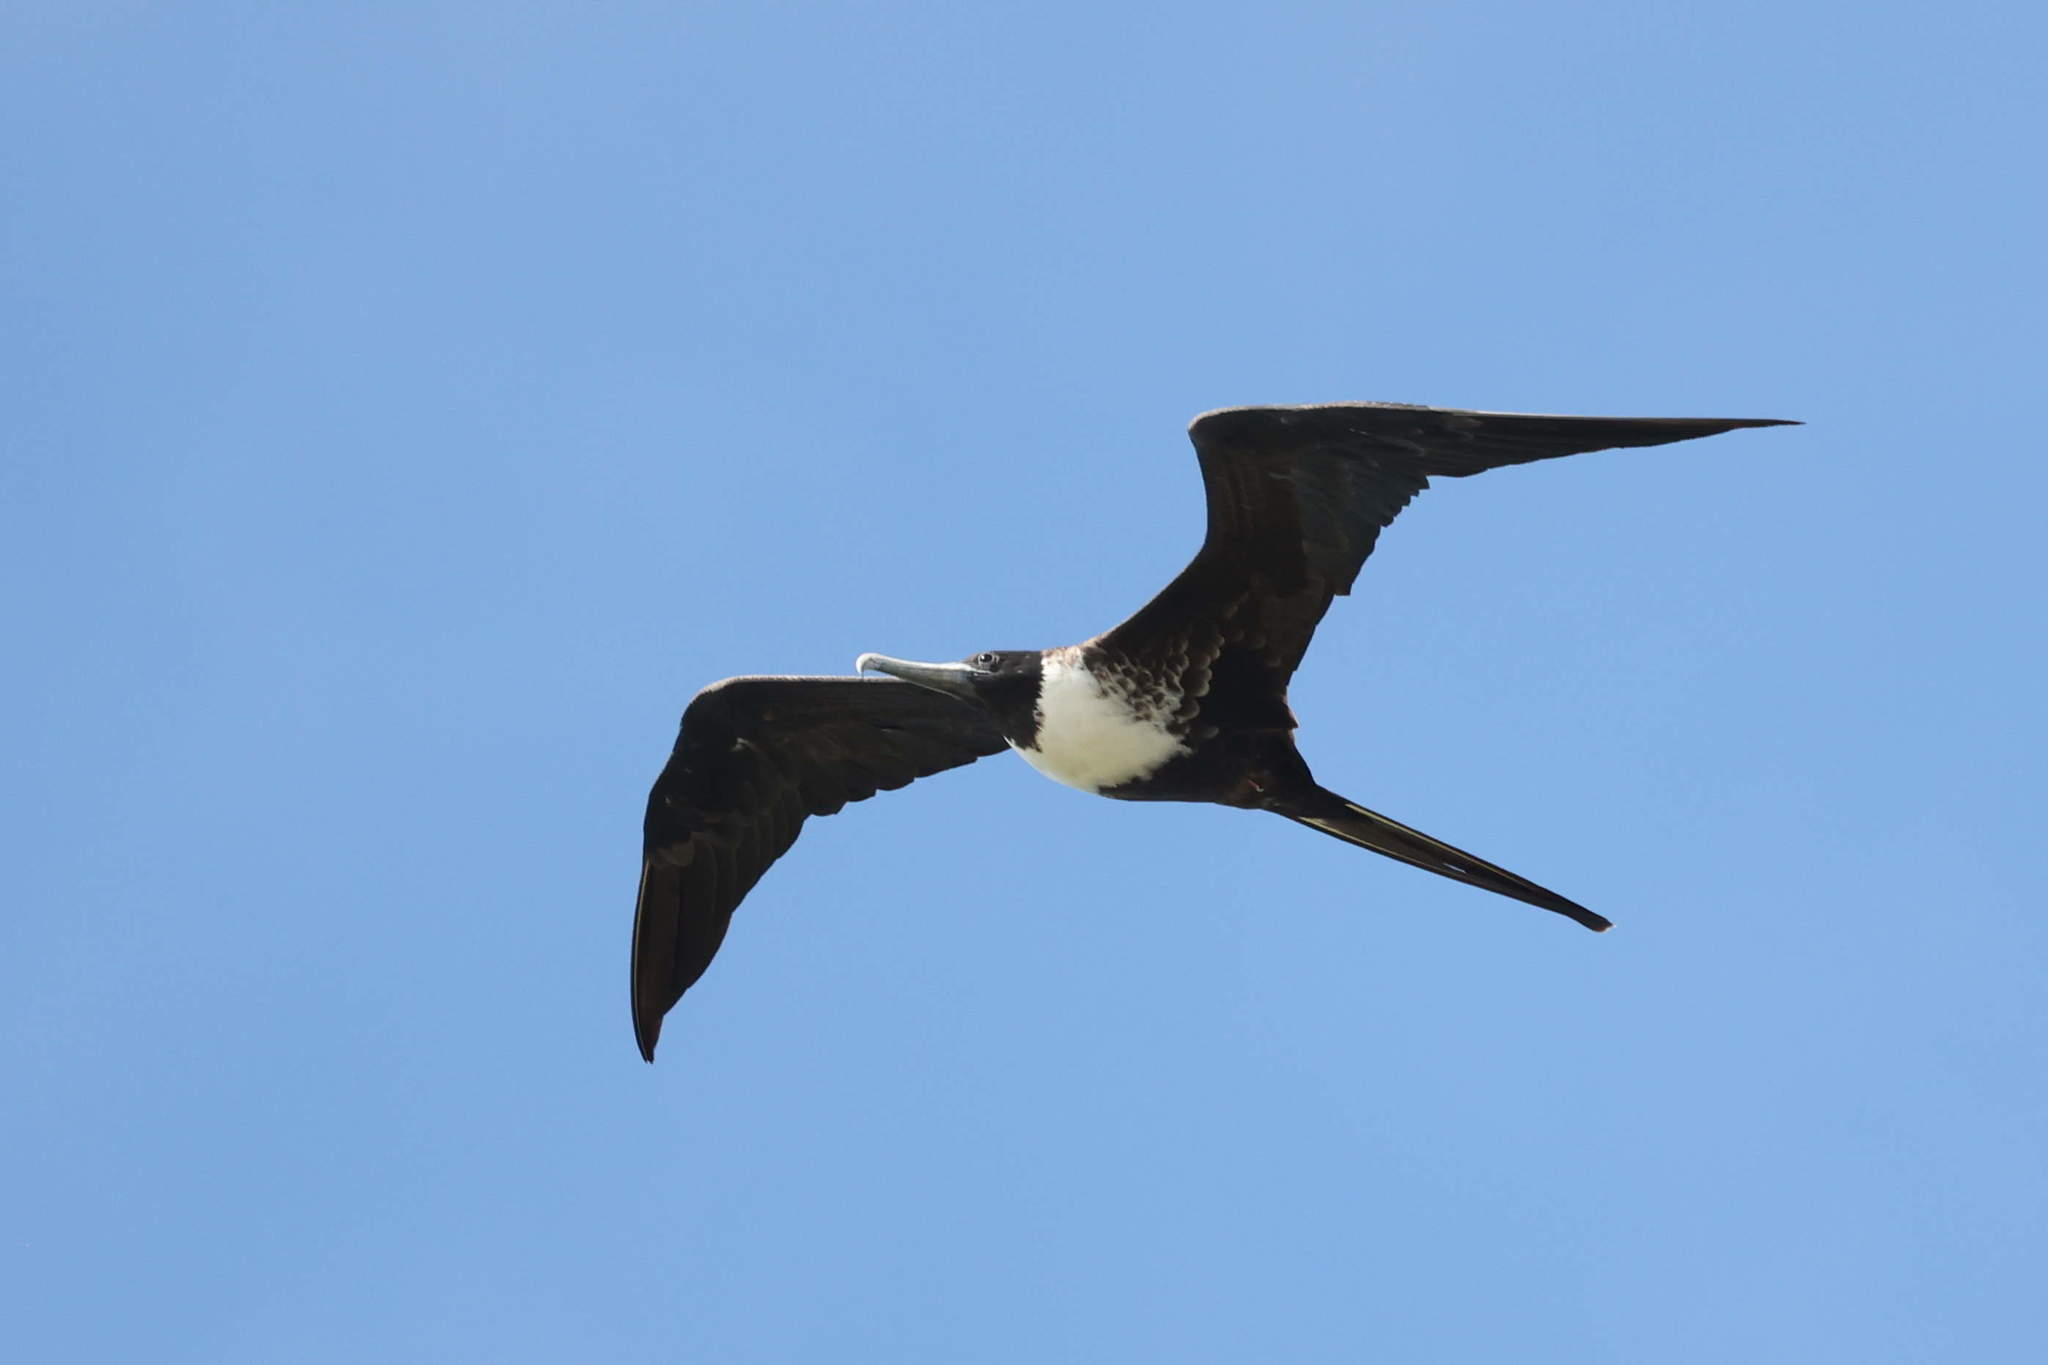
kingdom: Animalia
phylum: Chordata
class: Aves
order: Suliformes
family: Fregatidae
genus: Fregata
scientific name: Fregata magnificens
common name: Magnificent frigatebird
